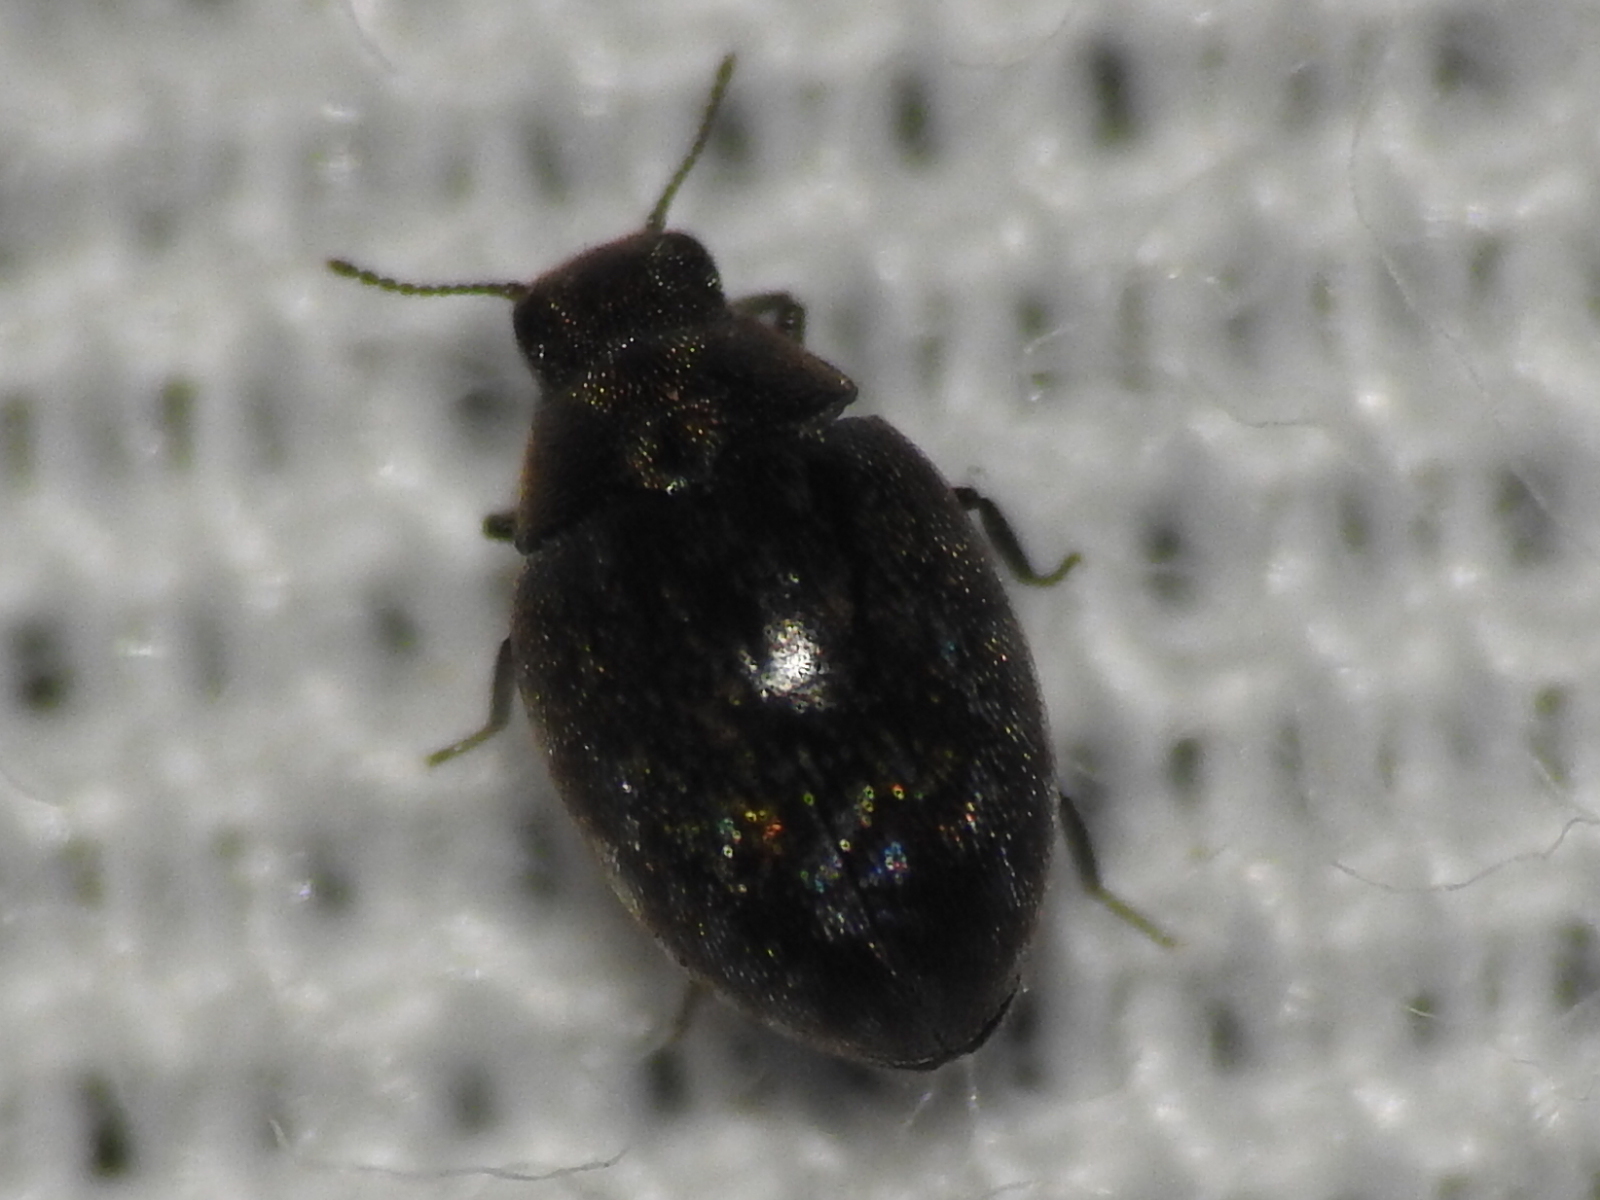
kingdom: Animalia
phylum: Arthropoda
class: Insecta
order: Coleoptera
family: Limnichidae
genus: Eulimnichus
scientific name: Eulimnichus ater
